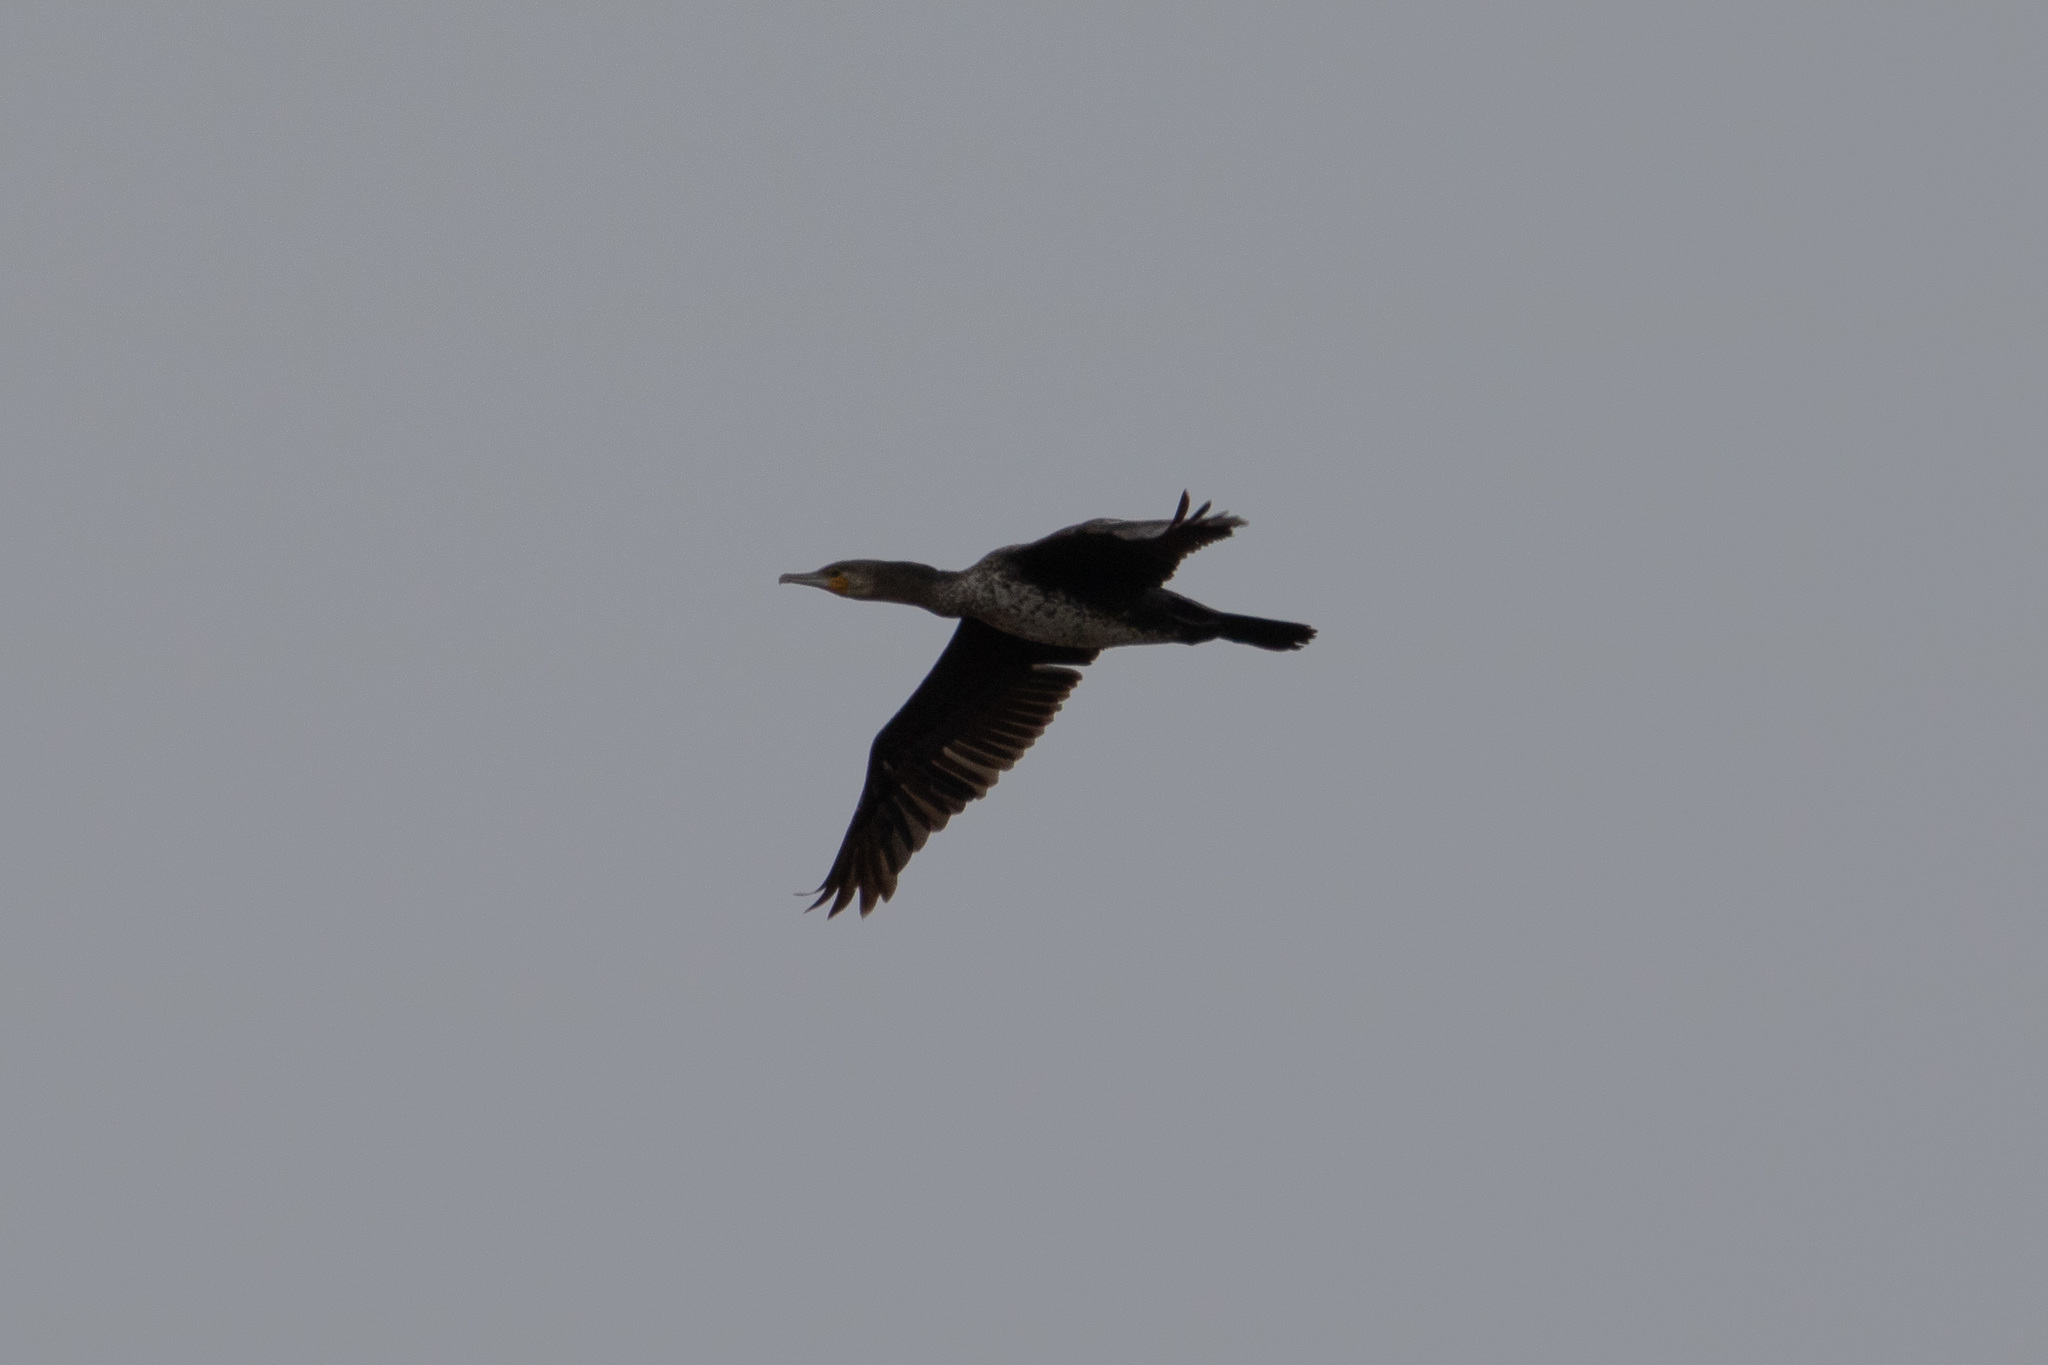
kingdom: Animalia
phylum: Chordata
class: Aves
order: Suliformes
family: Phalacrocoracidae
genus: Phalacrocorax
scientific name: Phalacrocorax carbo
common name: Great cormorant
